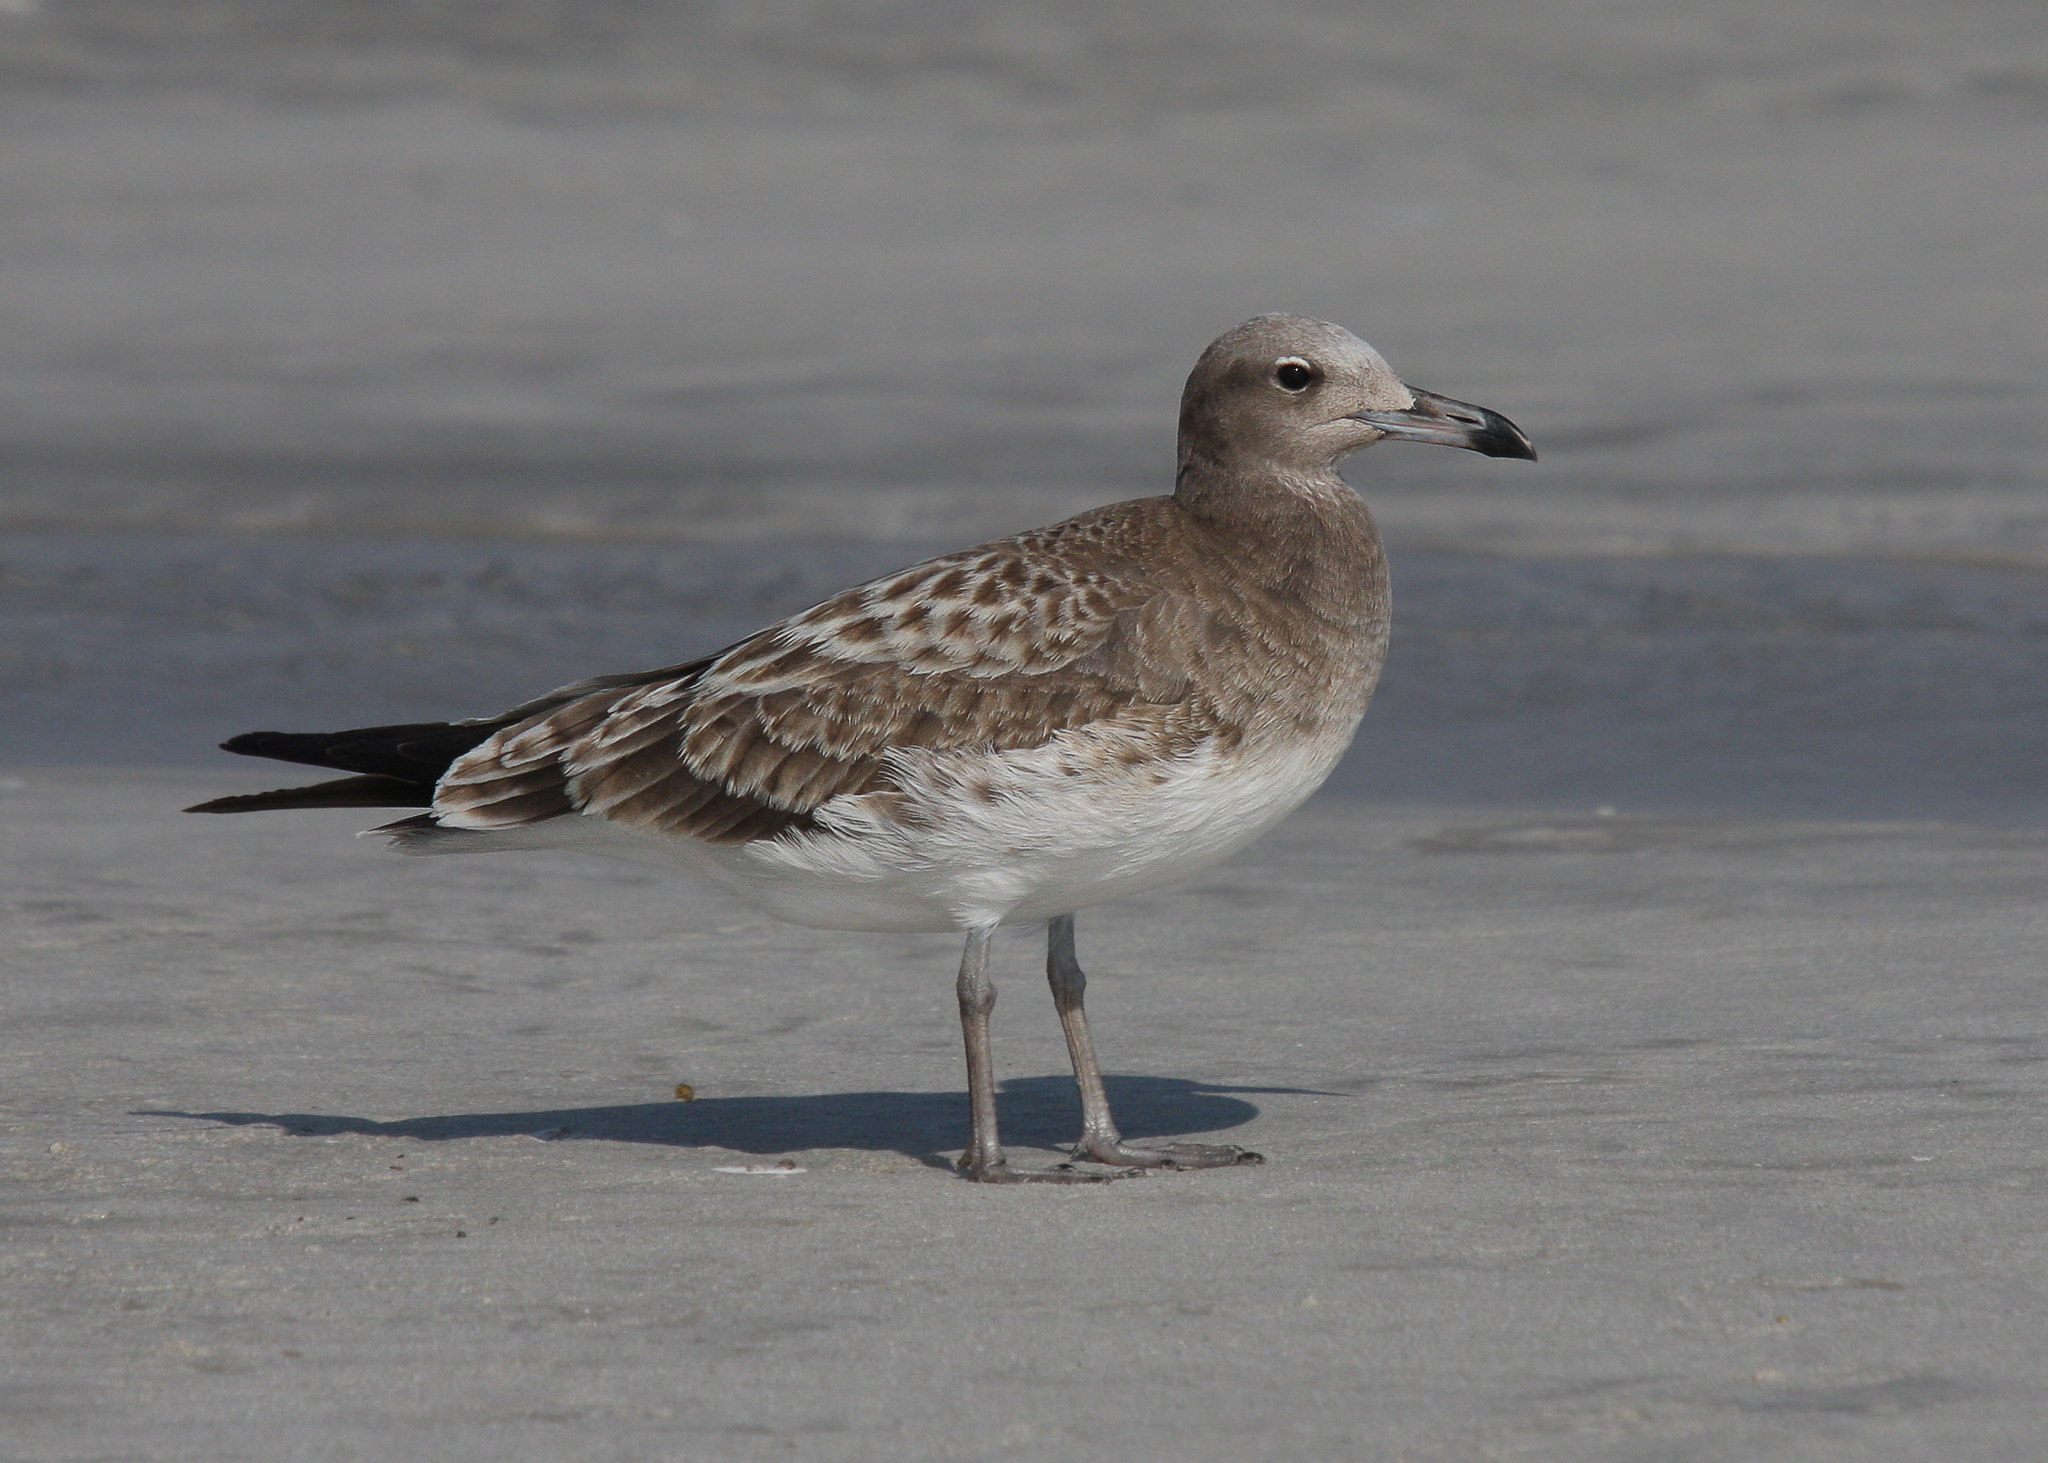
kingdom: Animalia
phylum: Chordata
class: Aves
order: Charadriiformes
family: Laridae
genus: Ichthyaetus
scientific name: Ichthyaetus hemprichii
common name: Sooty gull
